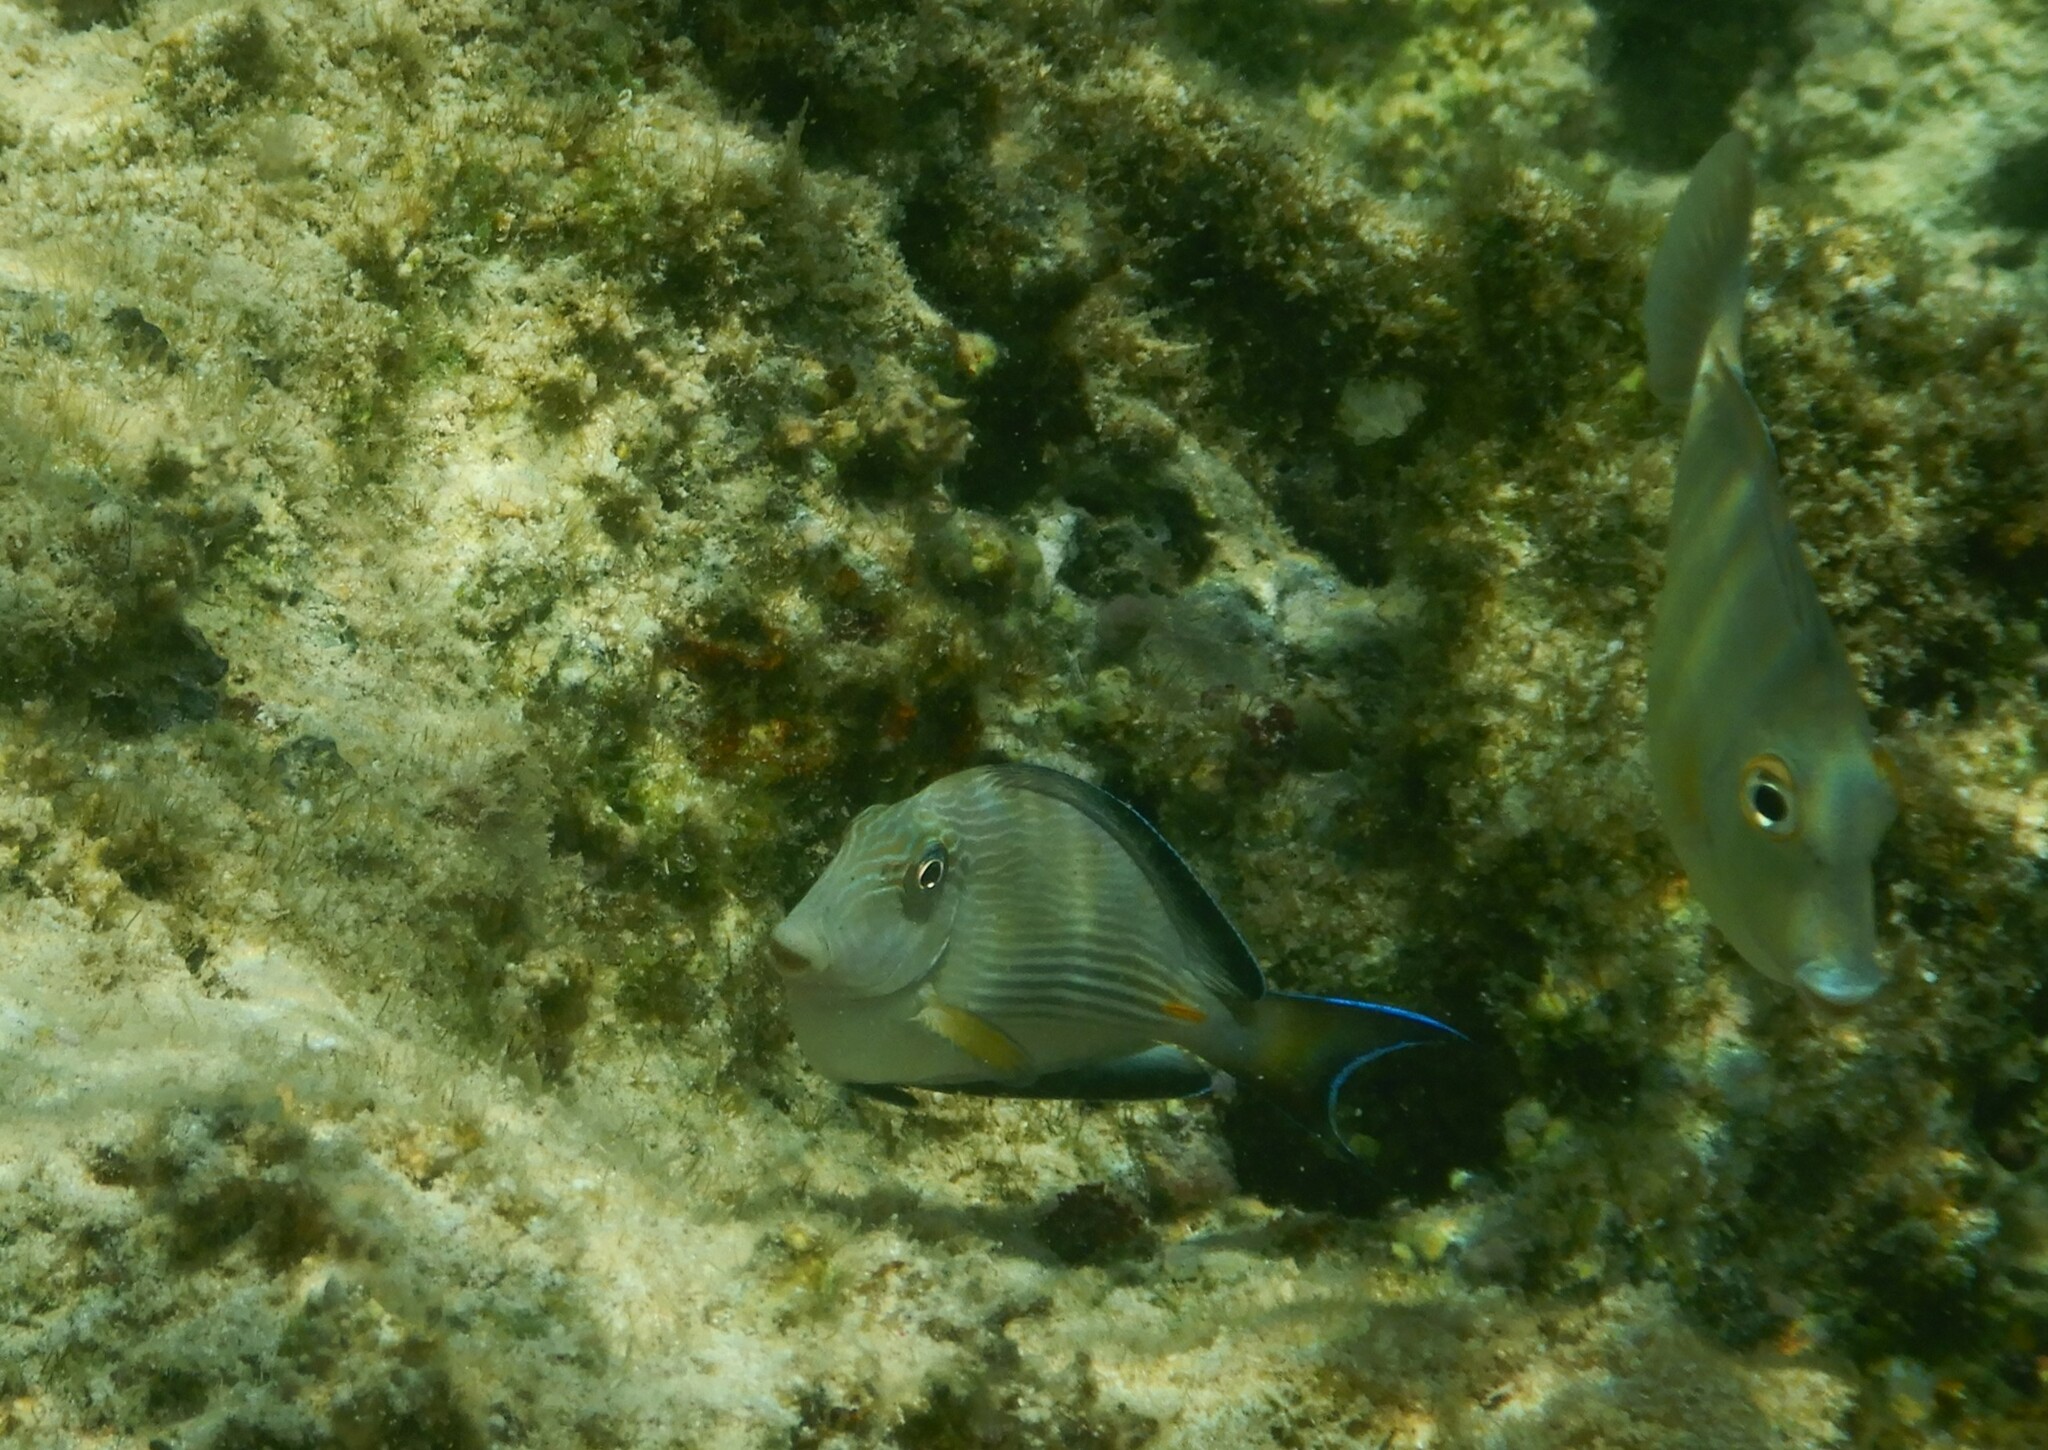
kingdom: Animalia
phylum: Chordata
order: Perciformes
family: Acanthuridae
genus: Acanthurus
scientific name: Acanthurus sohal
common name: Red sea surgeonfish
